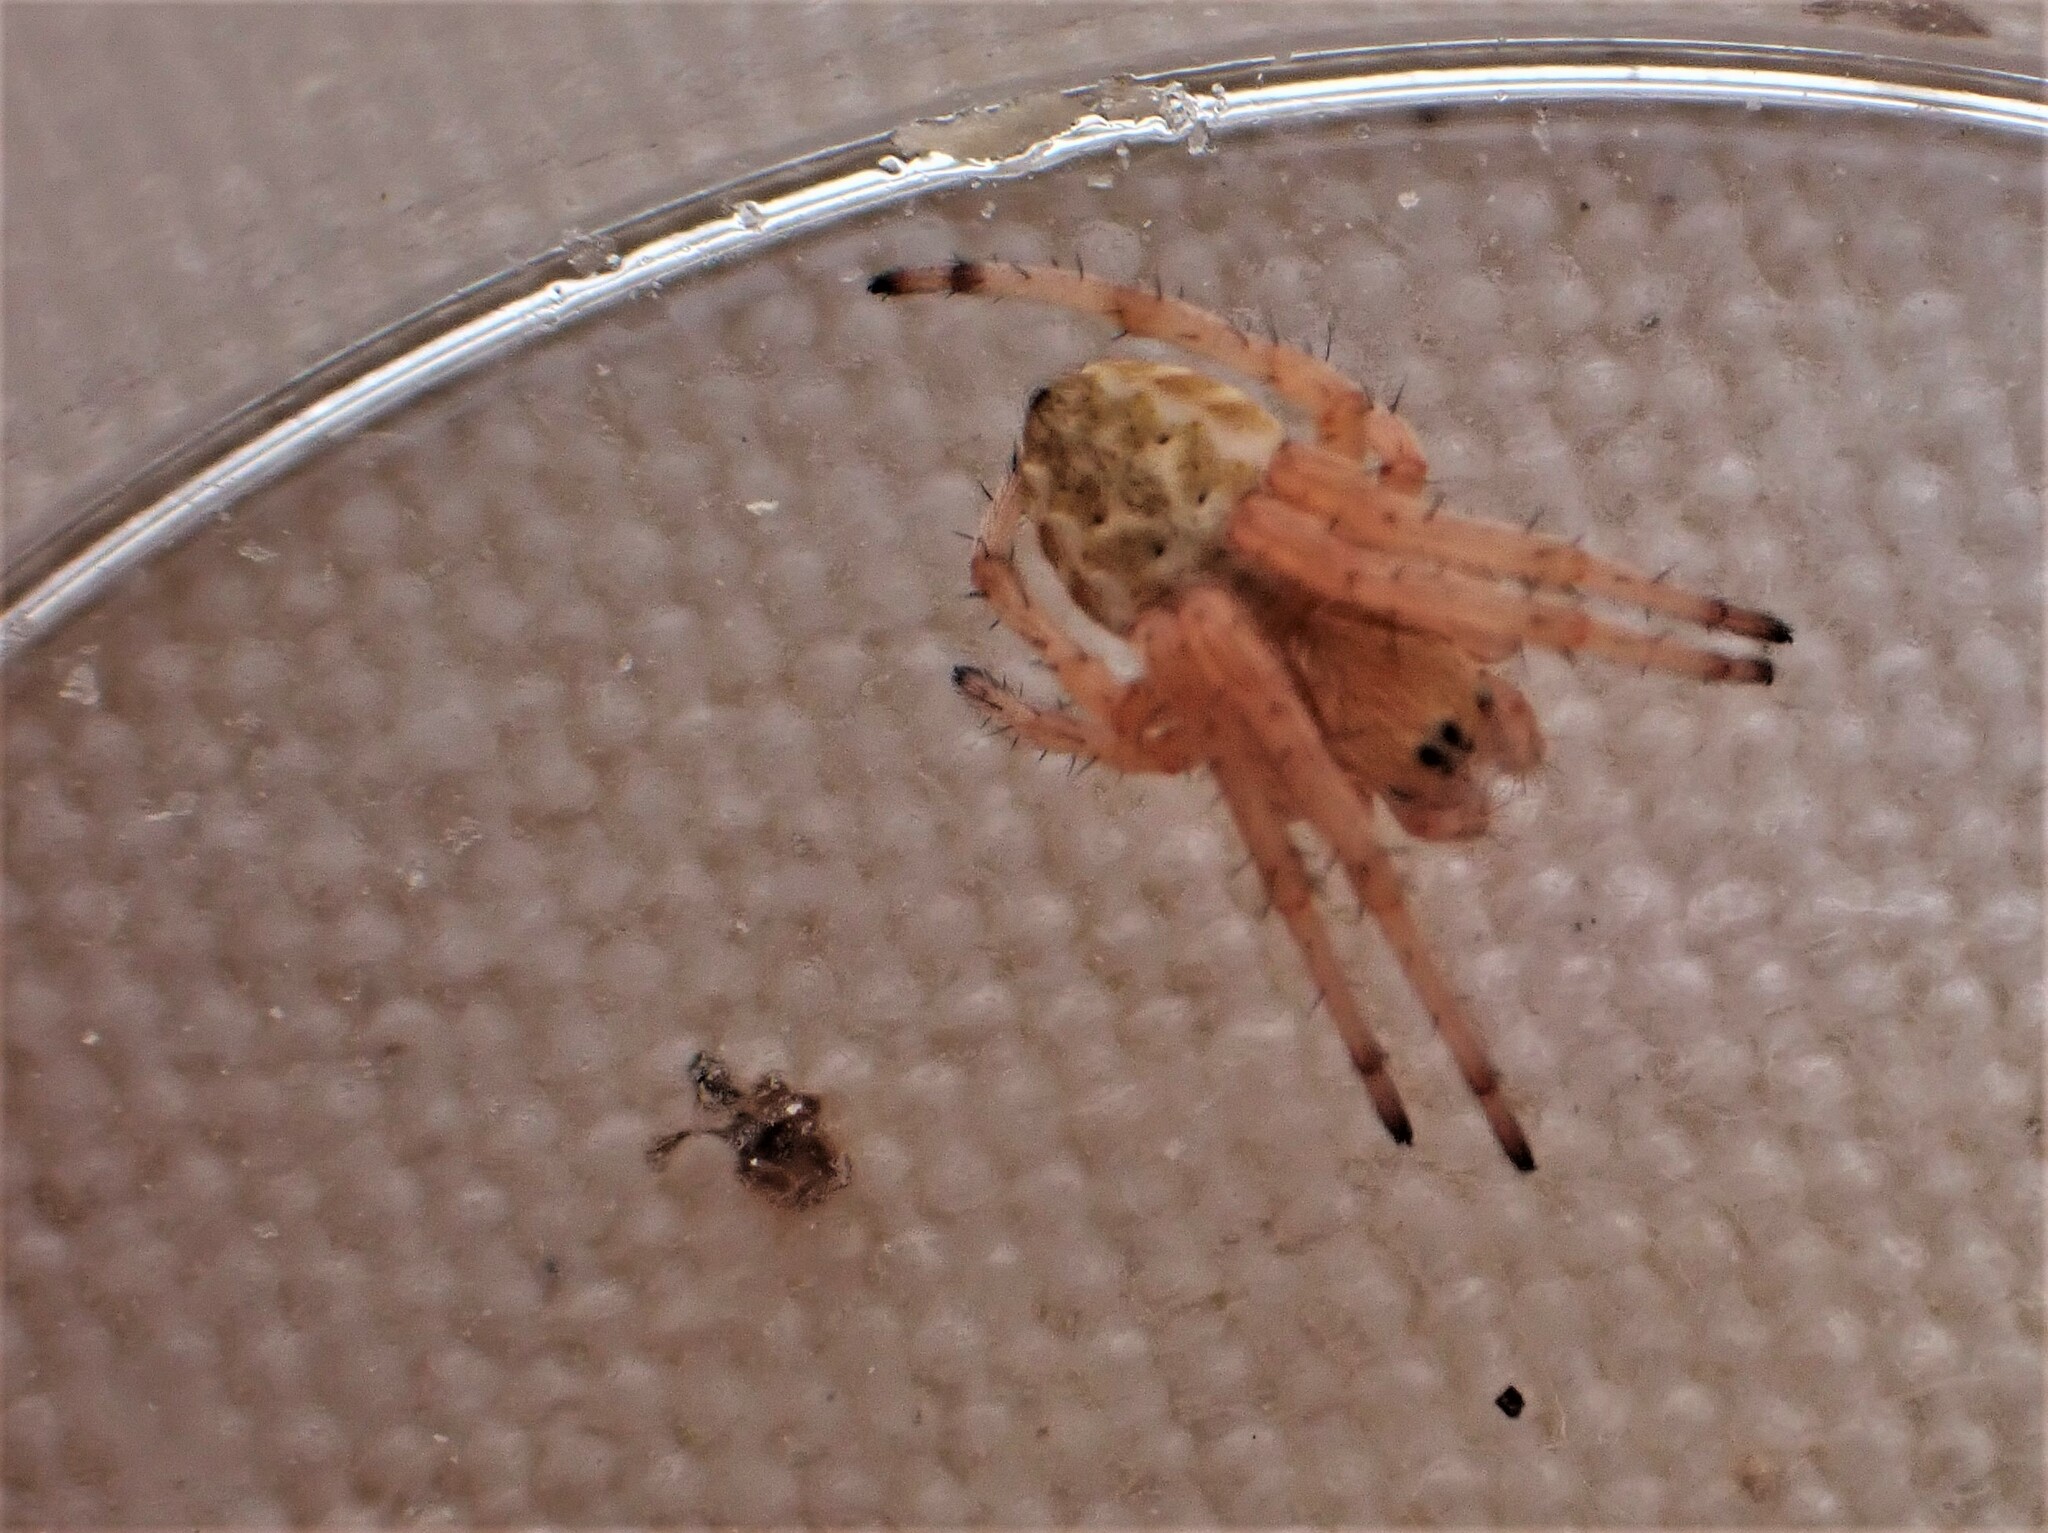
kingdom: Animalia
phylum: Arthropoda
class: Arachnida
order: Araneae
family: Araneidae
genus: Salsa
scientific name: Salsa fuliginata
